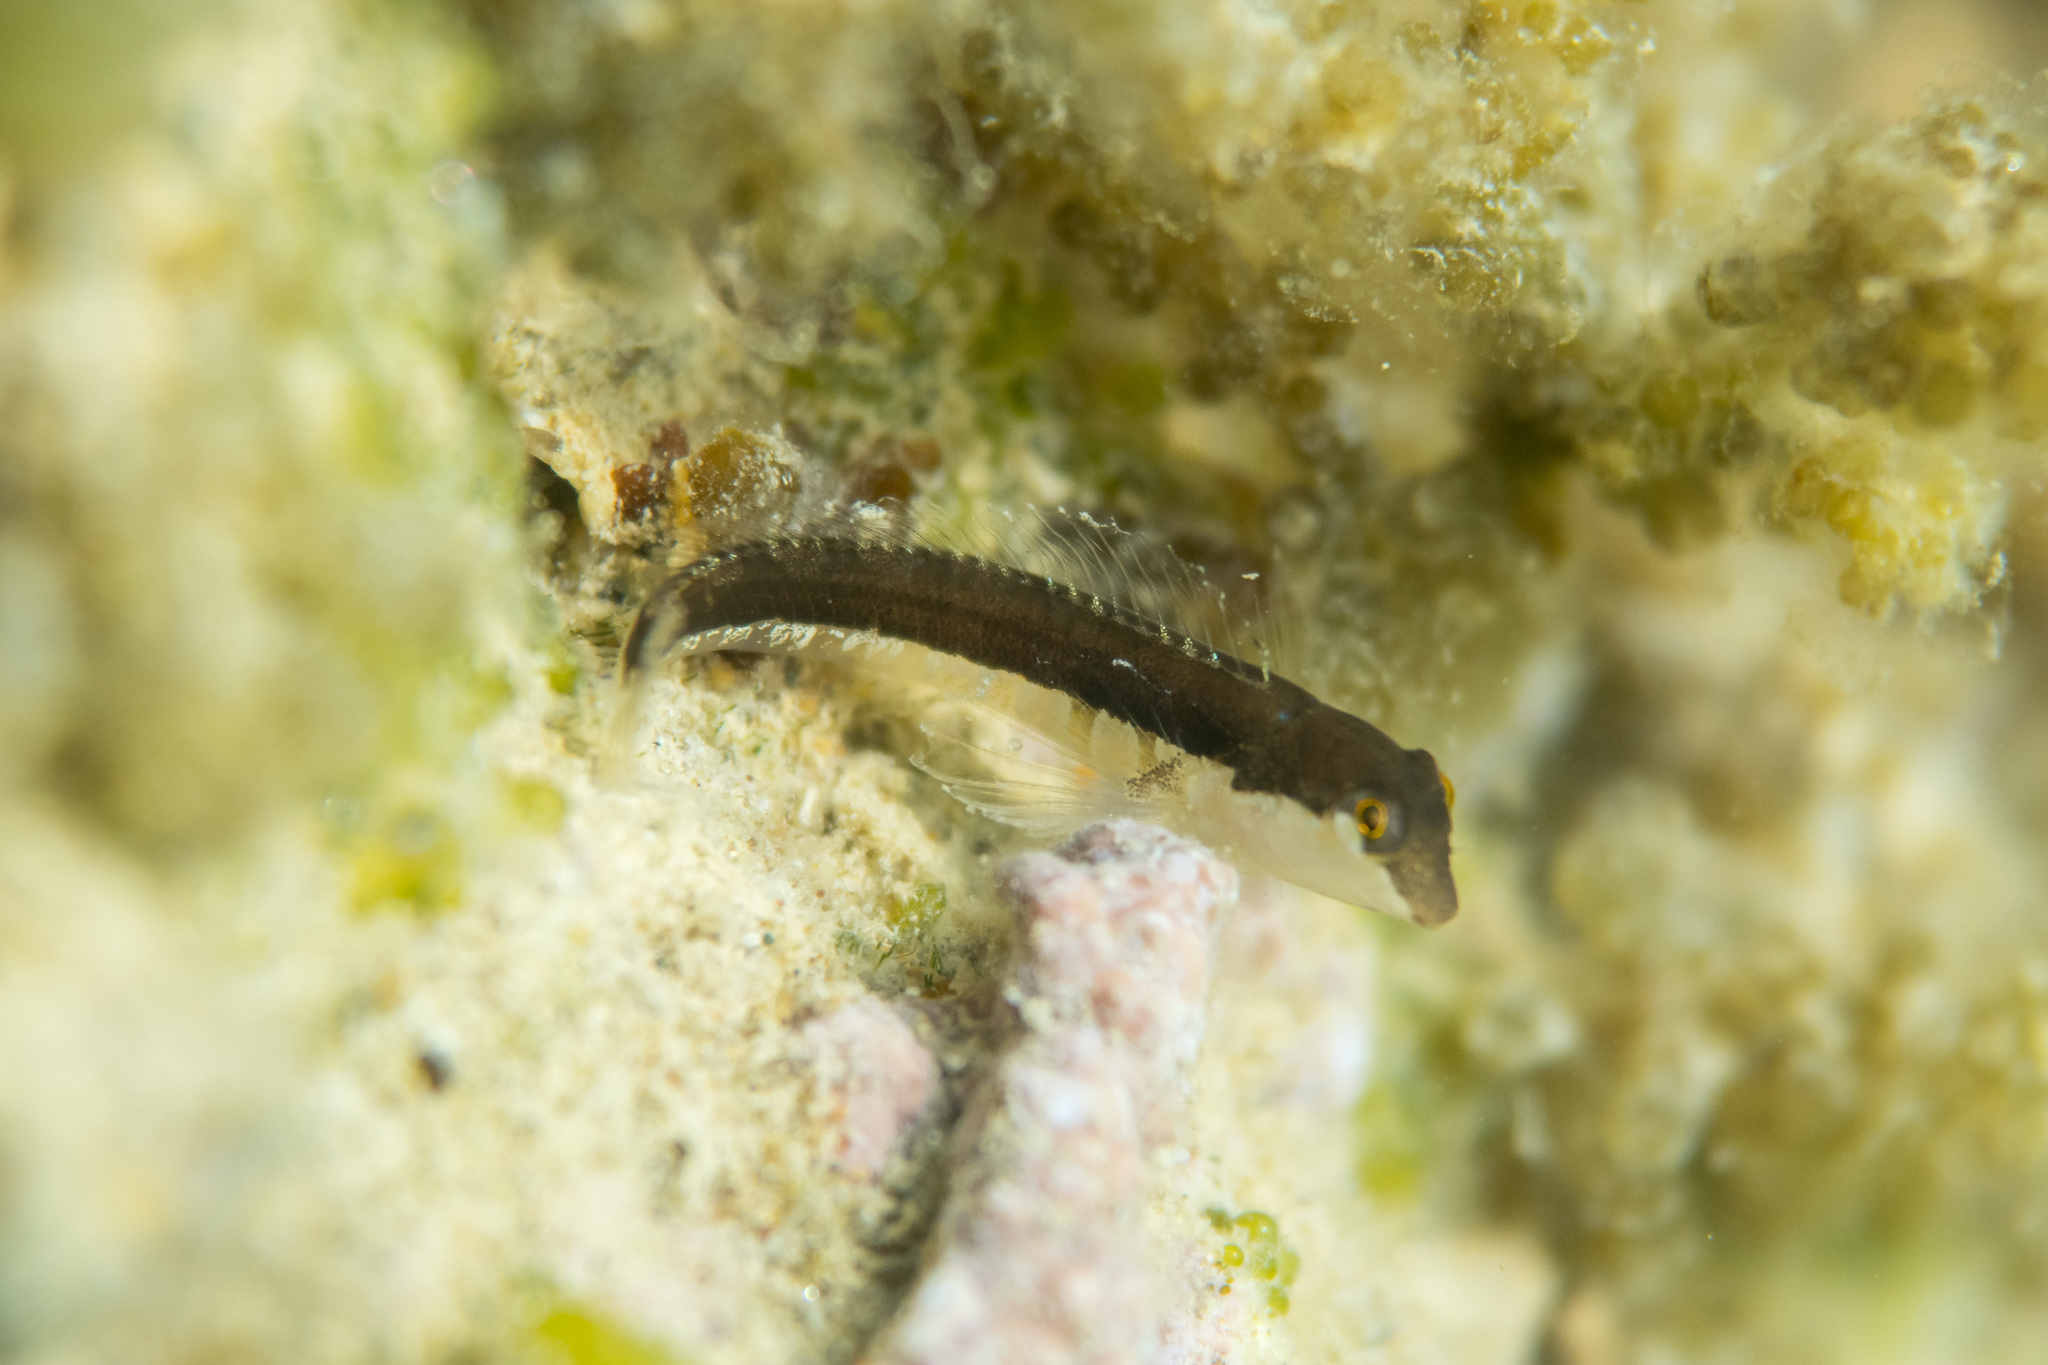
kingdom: Animalia
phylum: Chordata
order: Perciformes
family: Blenniidae
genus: Microlipophrys
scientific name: Microlipophrys dalmatinus
